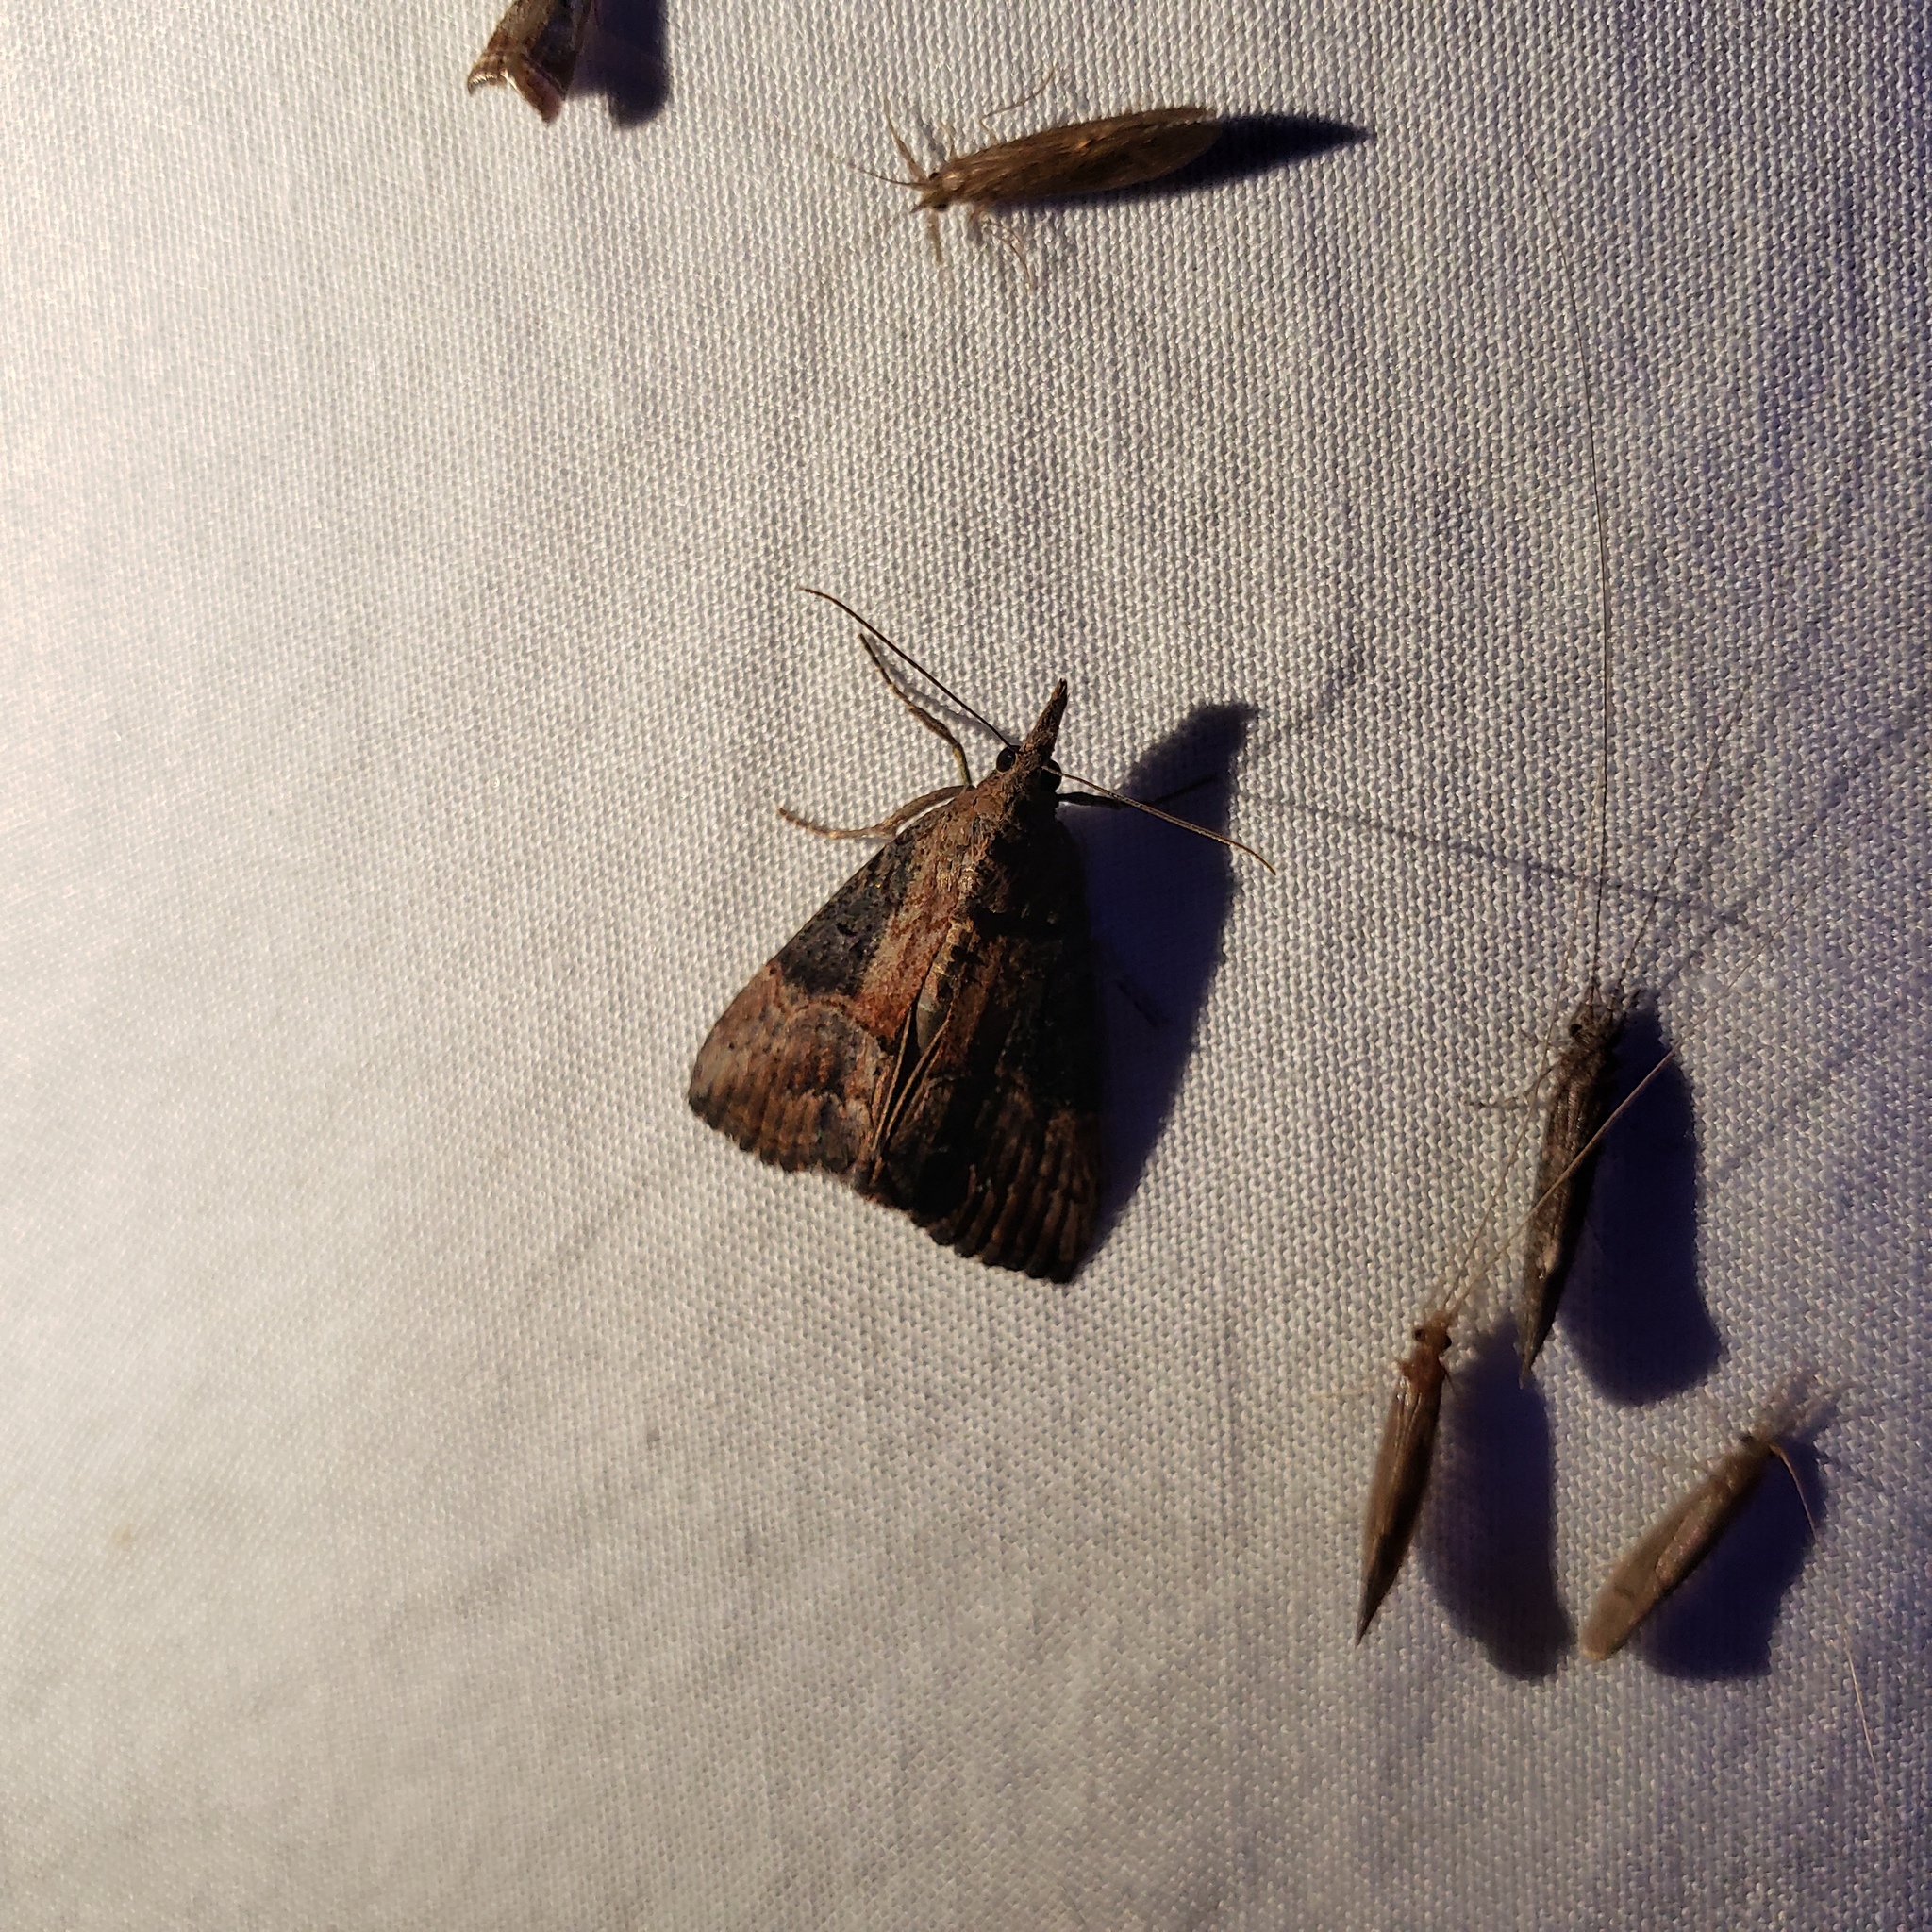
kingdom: Animalia
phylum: Arthropoda
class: Insecta
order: Lepidoptera
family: Erebidae
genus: Hypena
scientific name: Hypena scabra
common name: Green cloverworm
